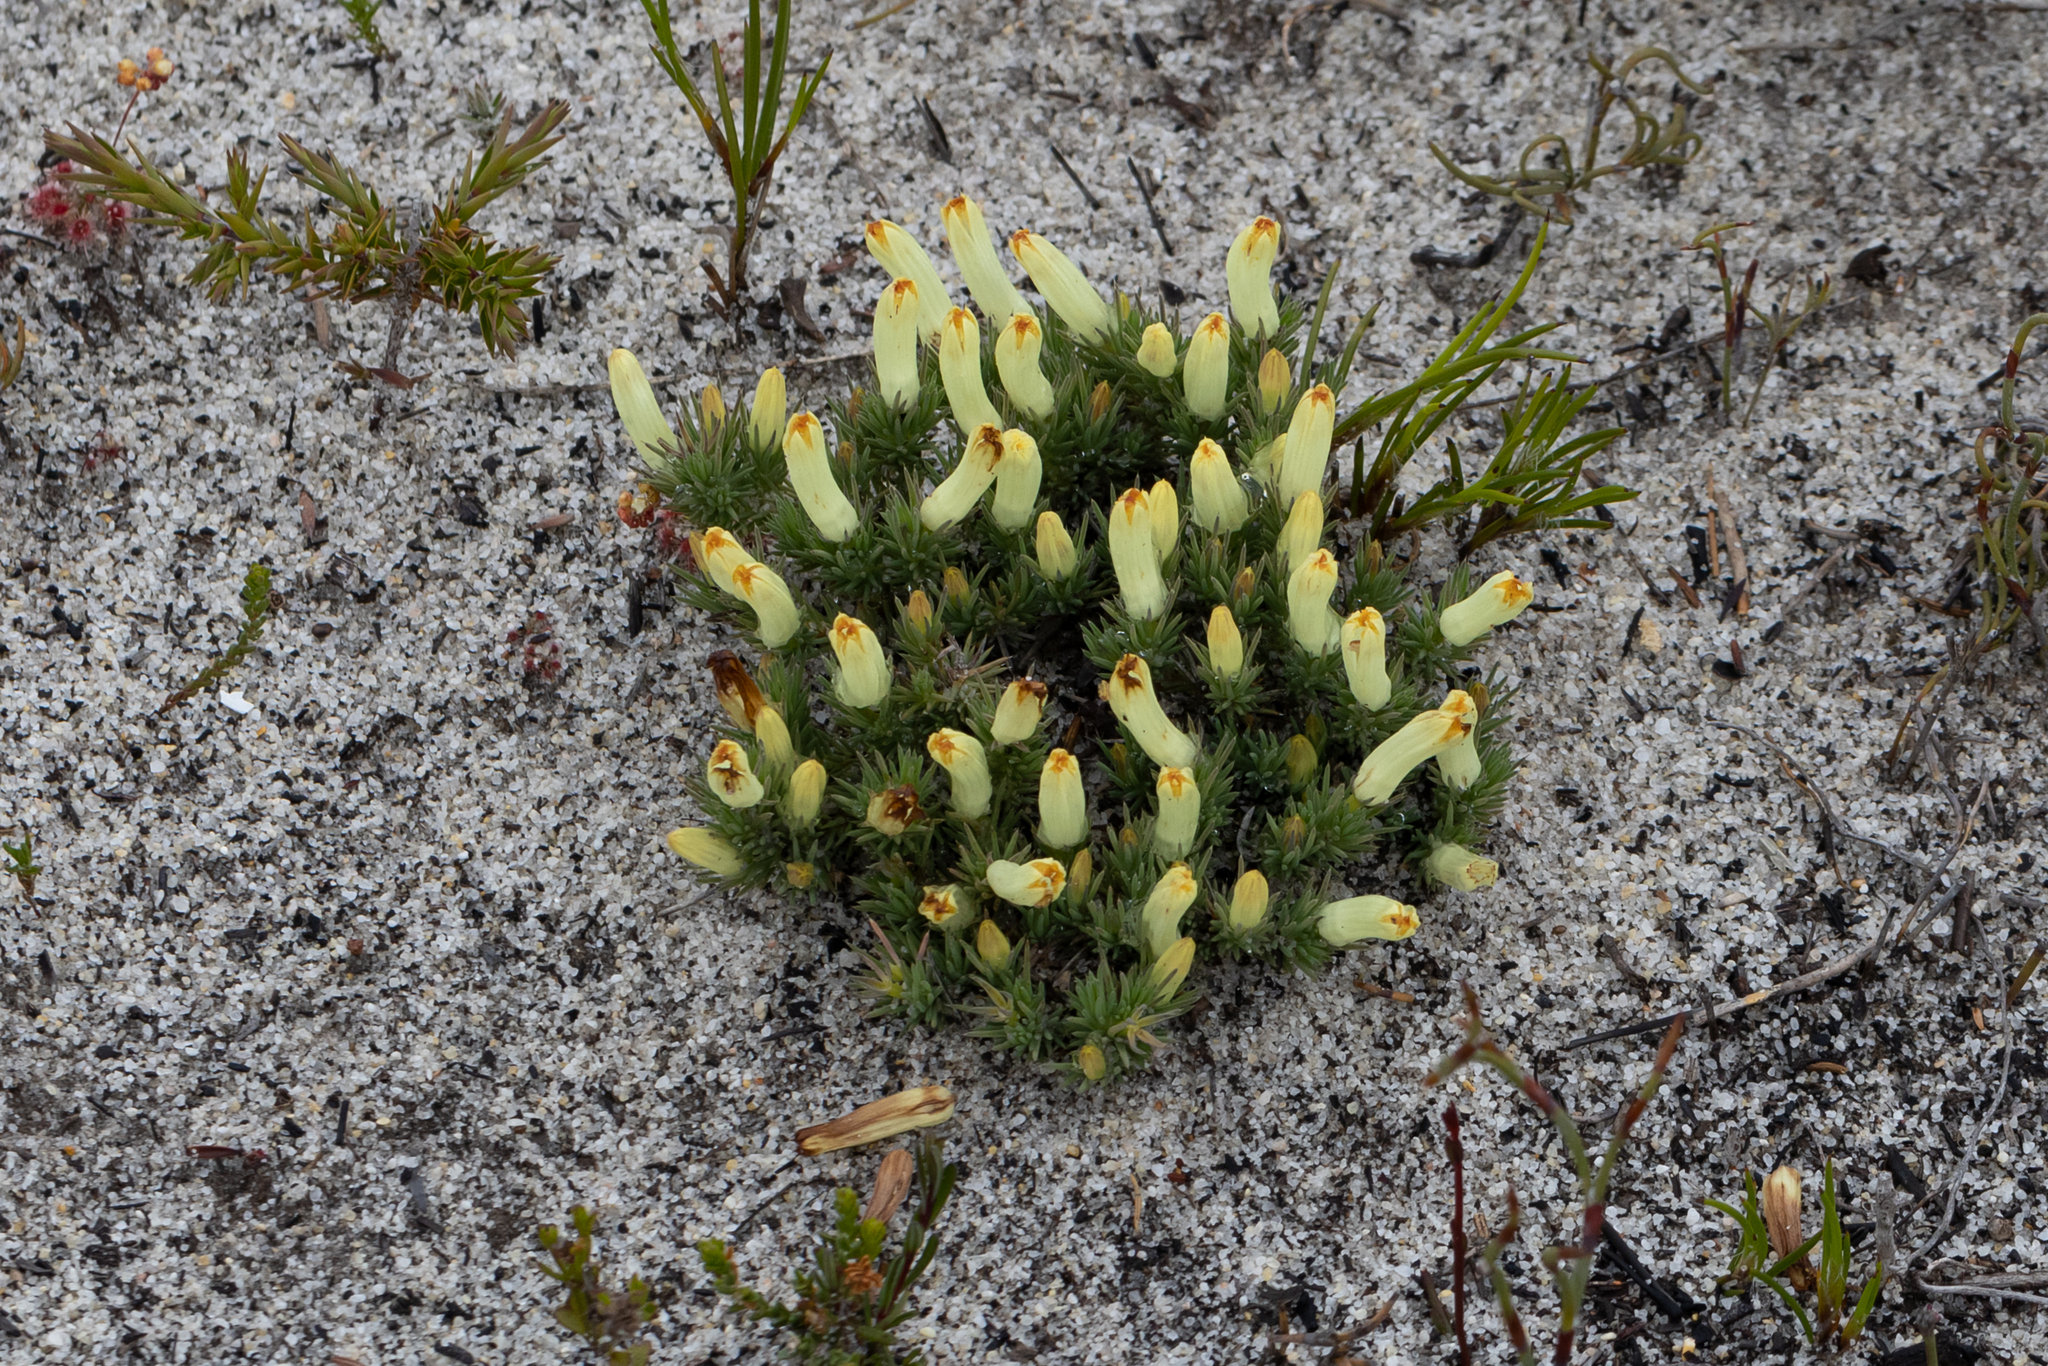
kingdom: Plantae
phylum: Tracheophyta
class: Magnoliopsida
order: Asterales
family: Goodeniaceae
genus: Lechenaultia
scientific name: Lechenaultia tubiflora
